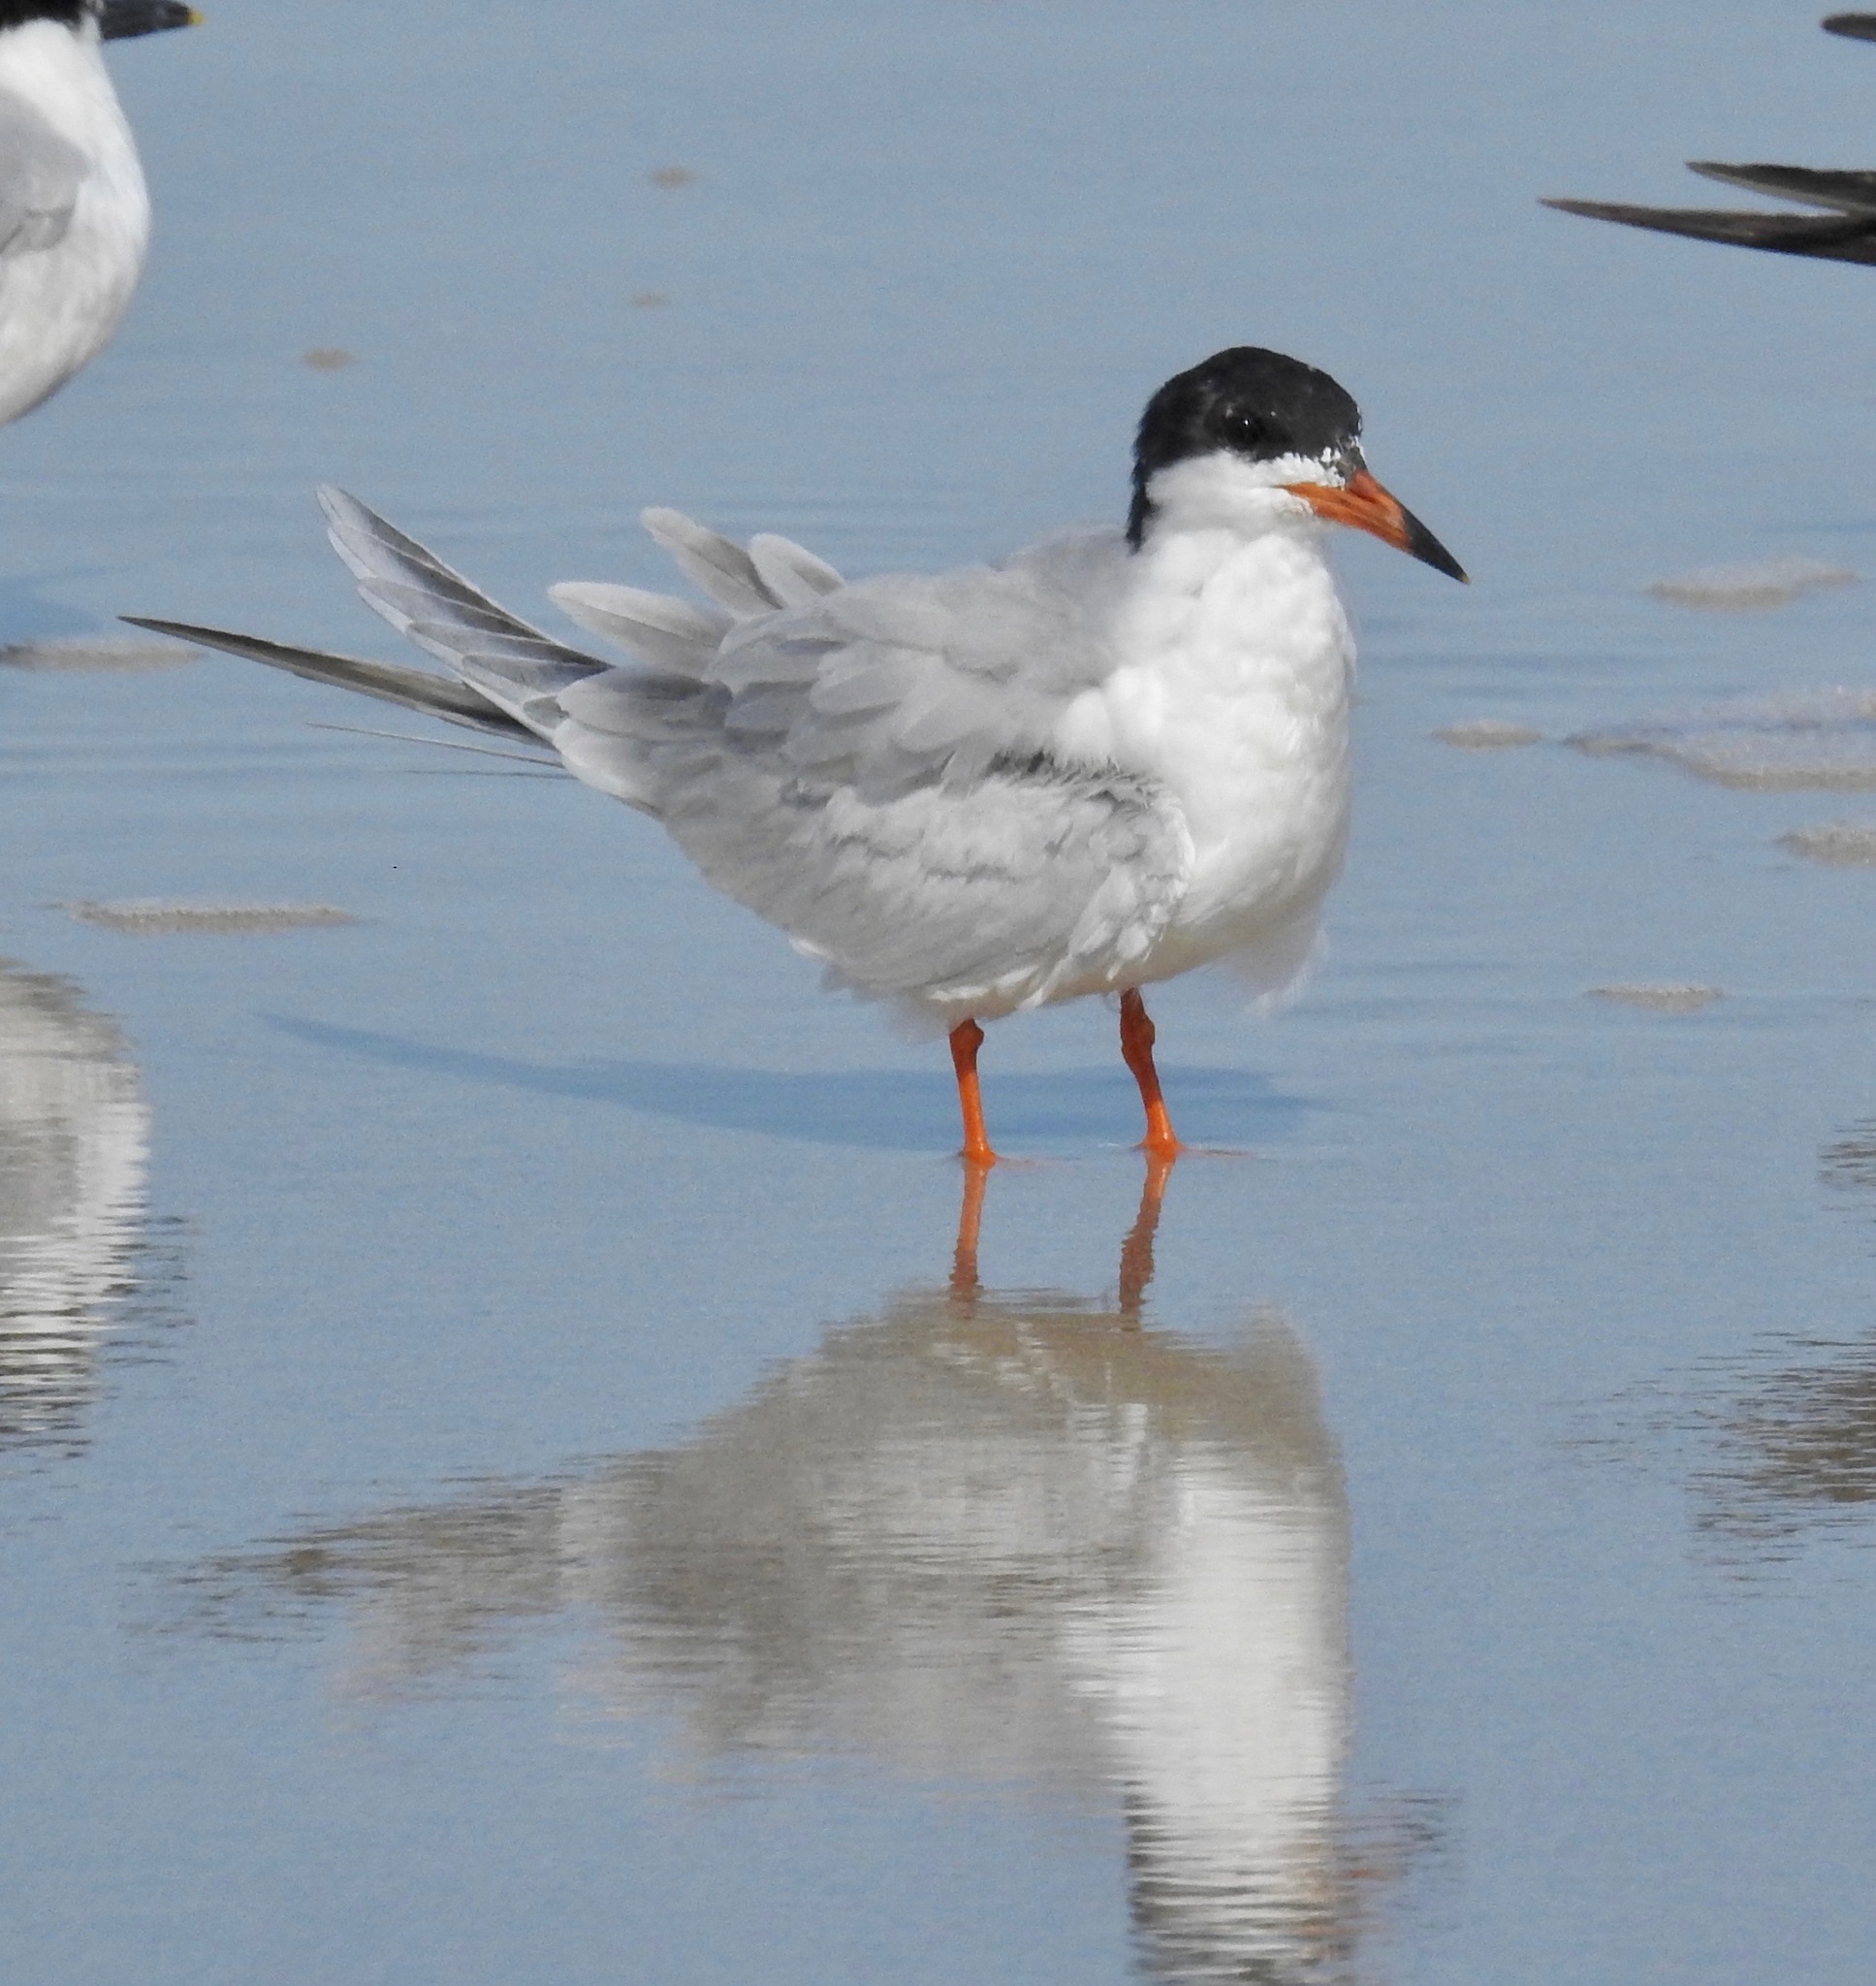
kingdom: Animalia
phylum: Chordata
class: Aves
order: Charadriiformes
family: Laridae
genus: Sterna
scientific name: Sterna forsteri
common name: Forster's tern
